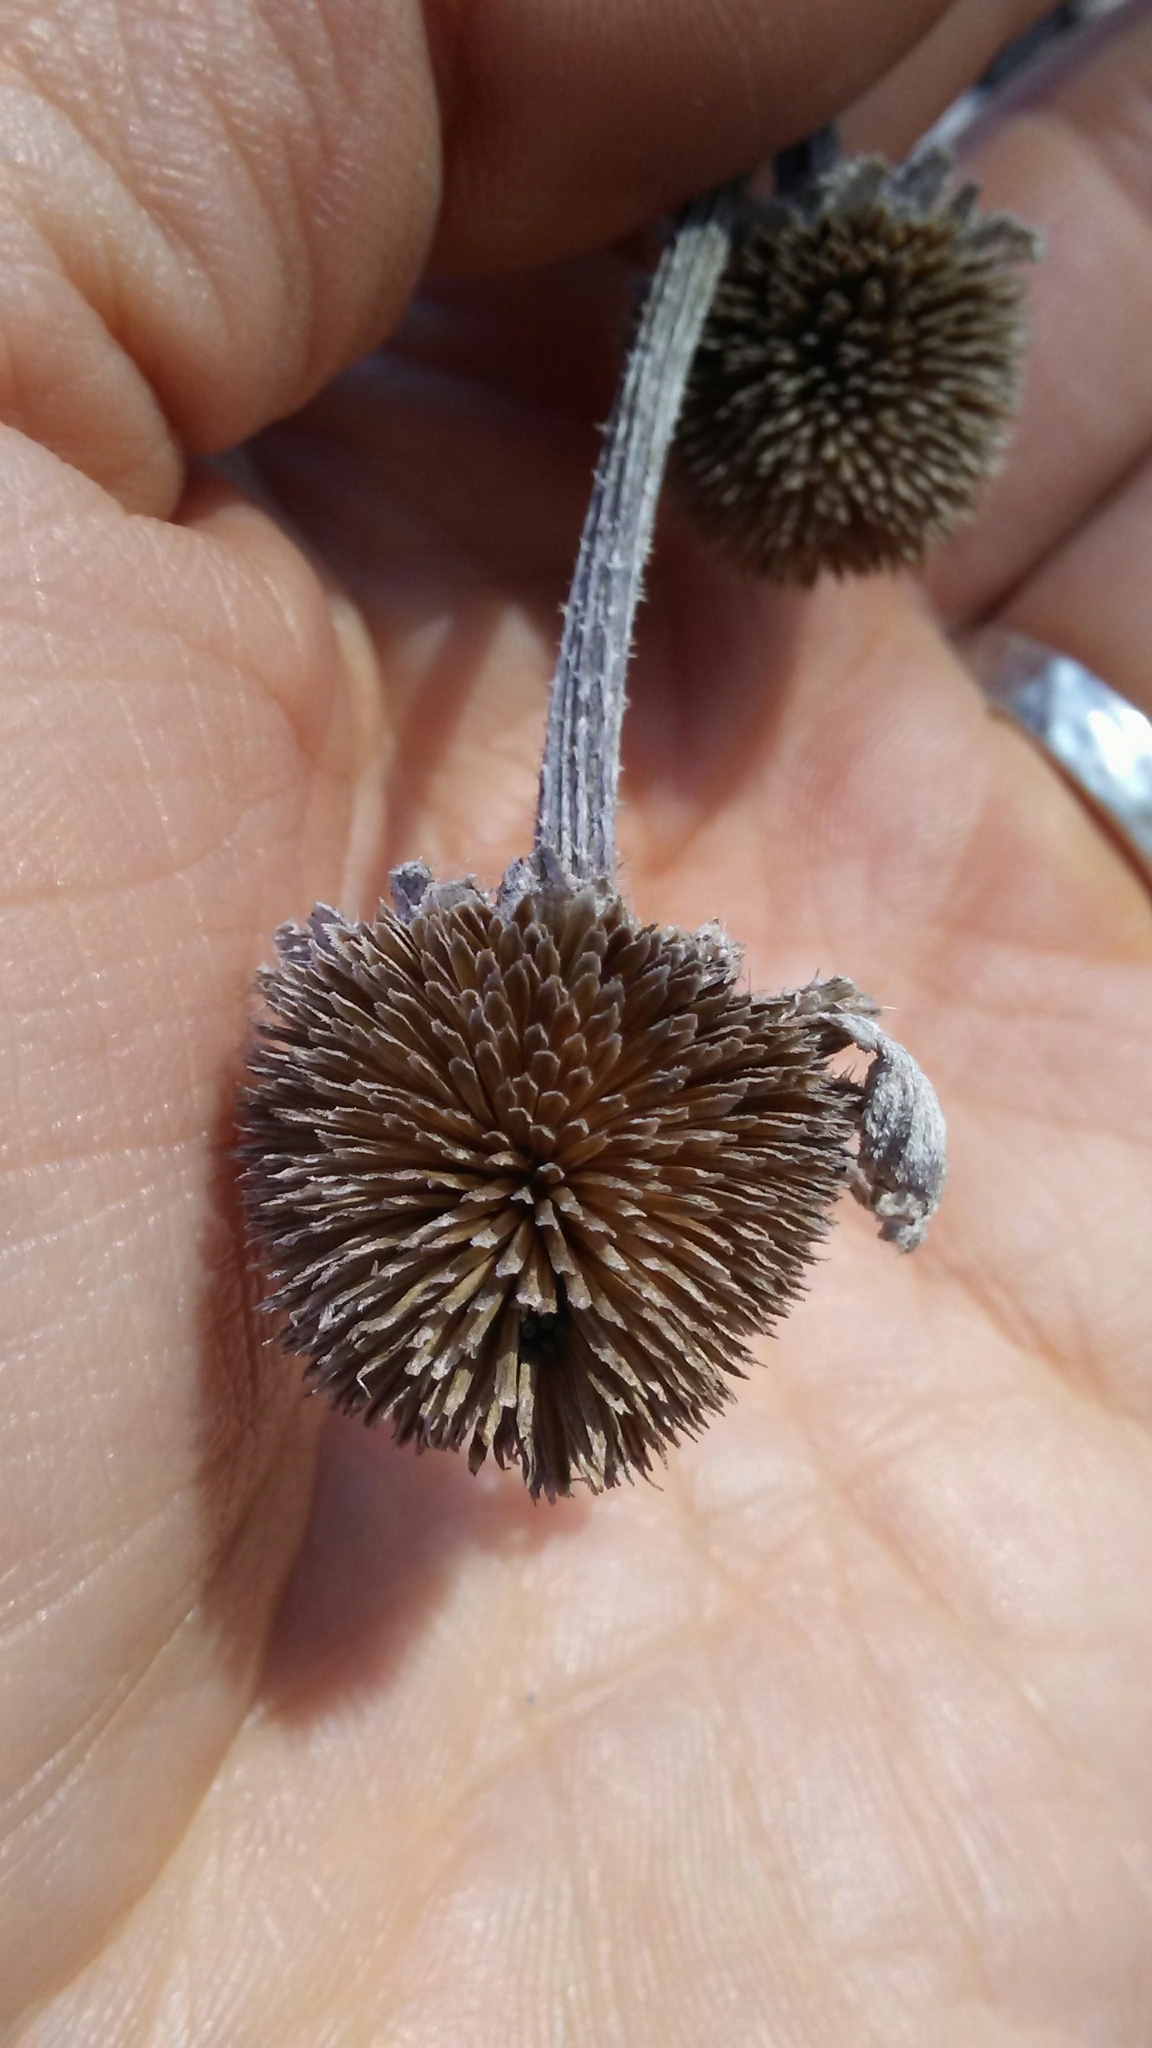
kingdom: Plantae
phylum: Tracheophyta
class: Magnoliopsida
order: Asterales
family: Asteraceae
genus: Rudbeckia
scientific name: Rudbeckia hirta
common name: Black-eyed-susan
